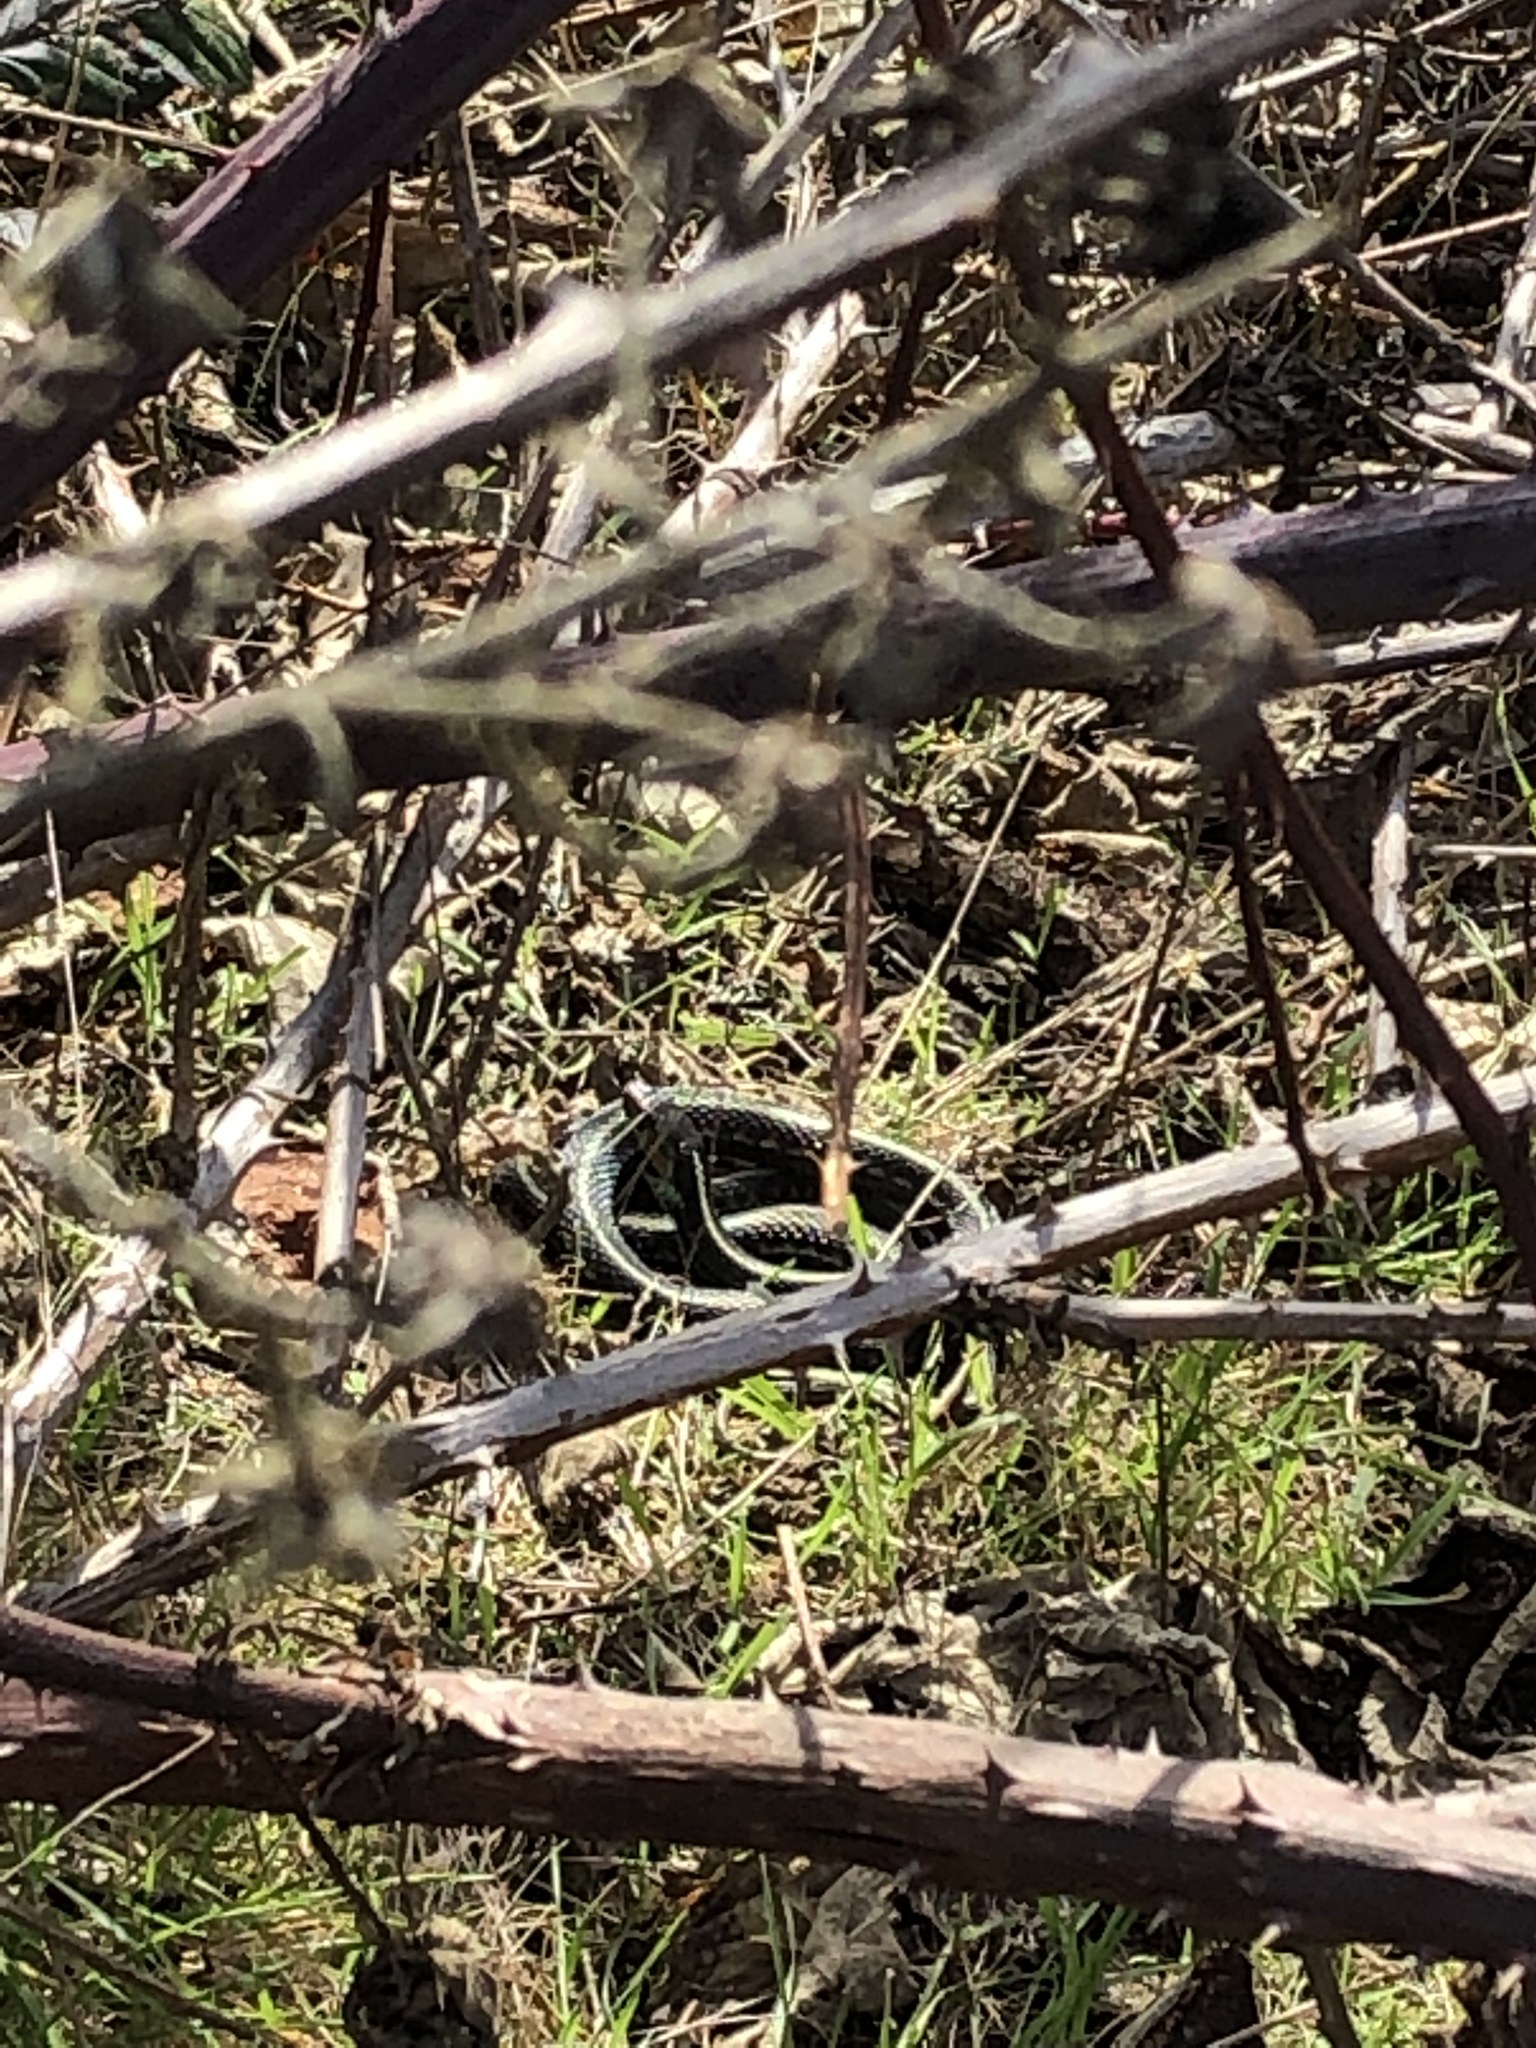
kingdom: Animalia
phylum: Chordata
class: Squamata
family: Colubridae
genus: Thamnophis
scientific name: Thamnophis sirtalis
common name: Common garter snake
